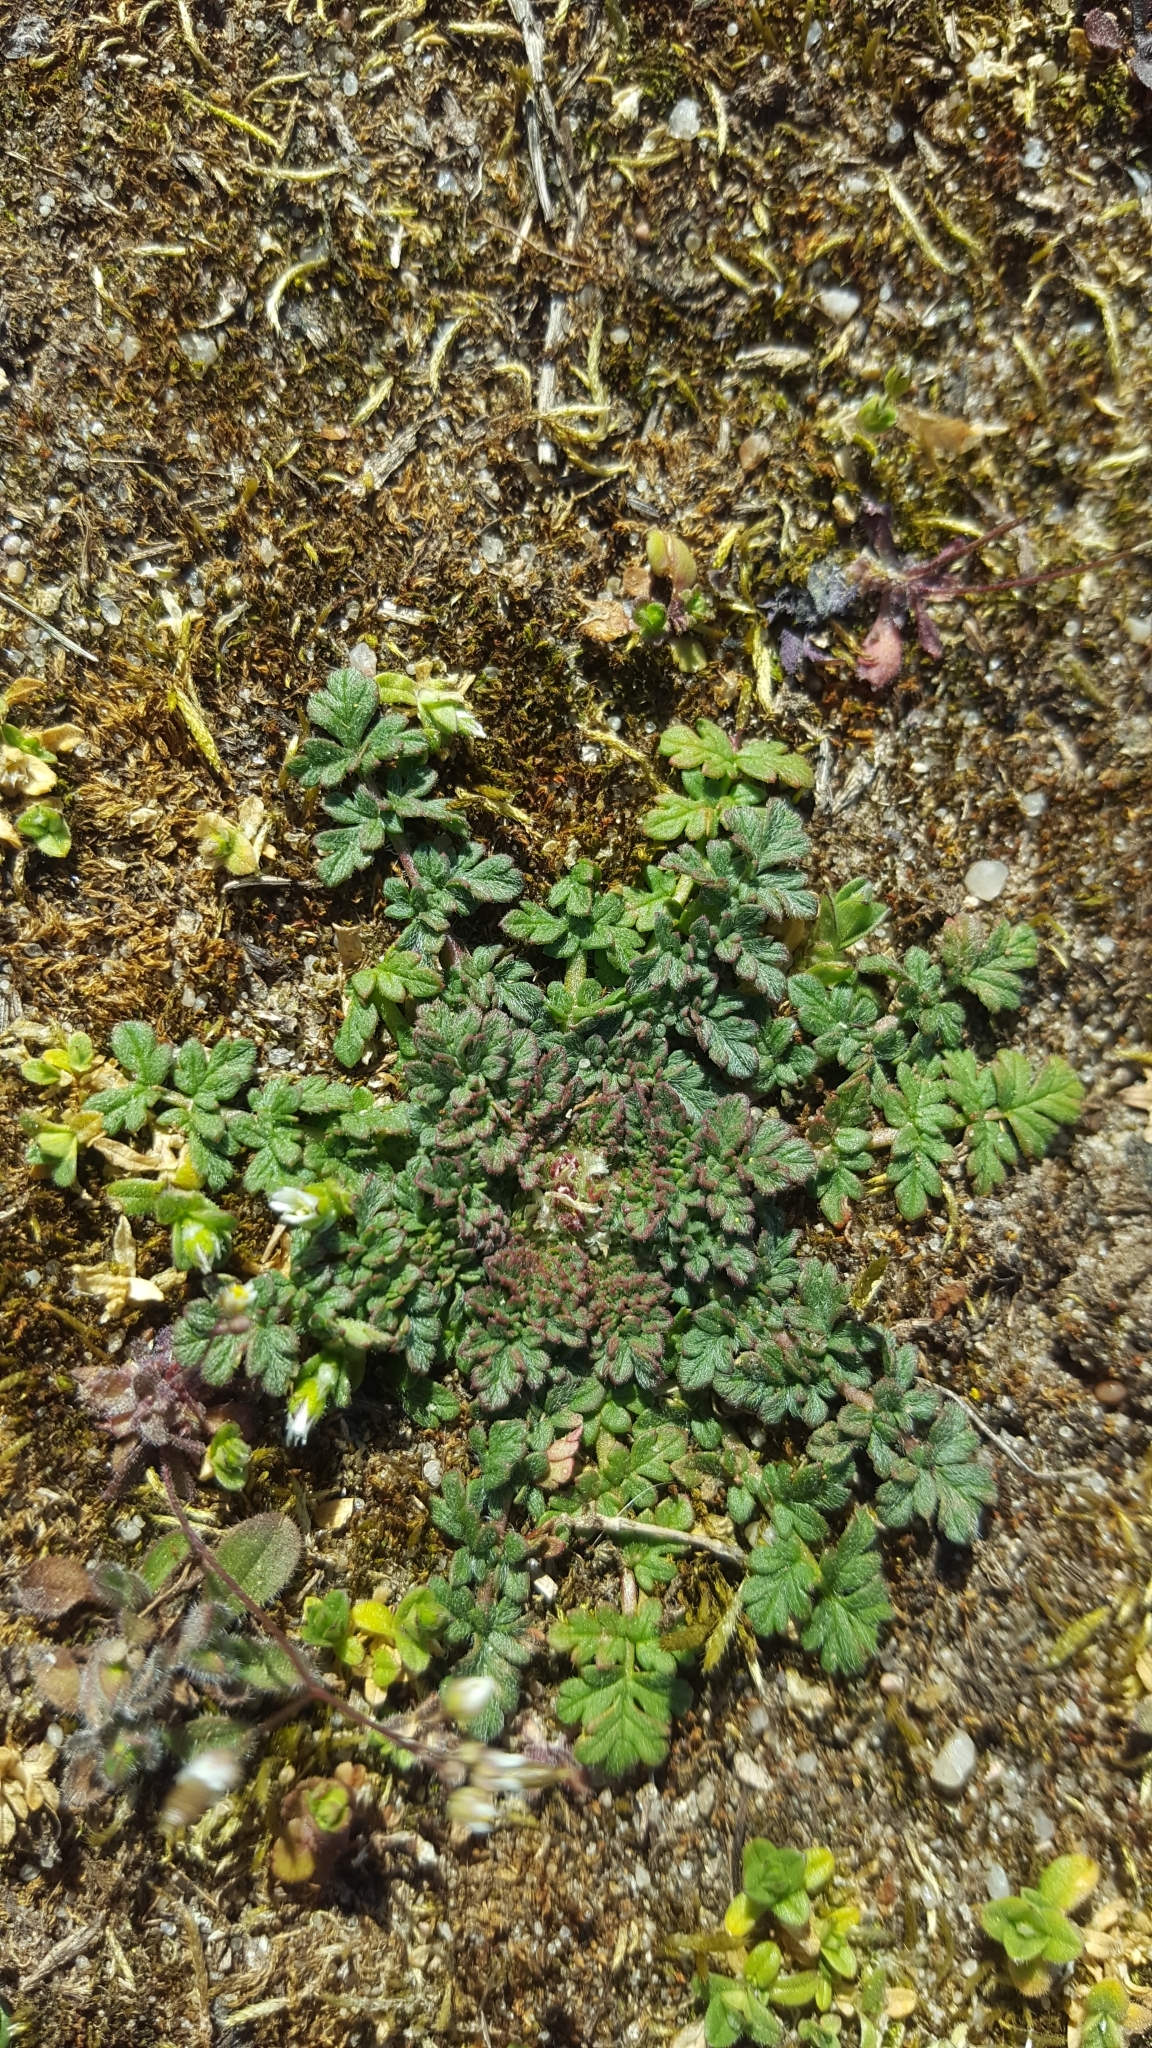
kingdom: Plantae
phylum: Tracheophyta
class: Magnoliopsida
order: Geraniales
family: Geraniaceae
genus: Erodium
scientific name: Erodium cicutarium
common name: Common stork's-bill
